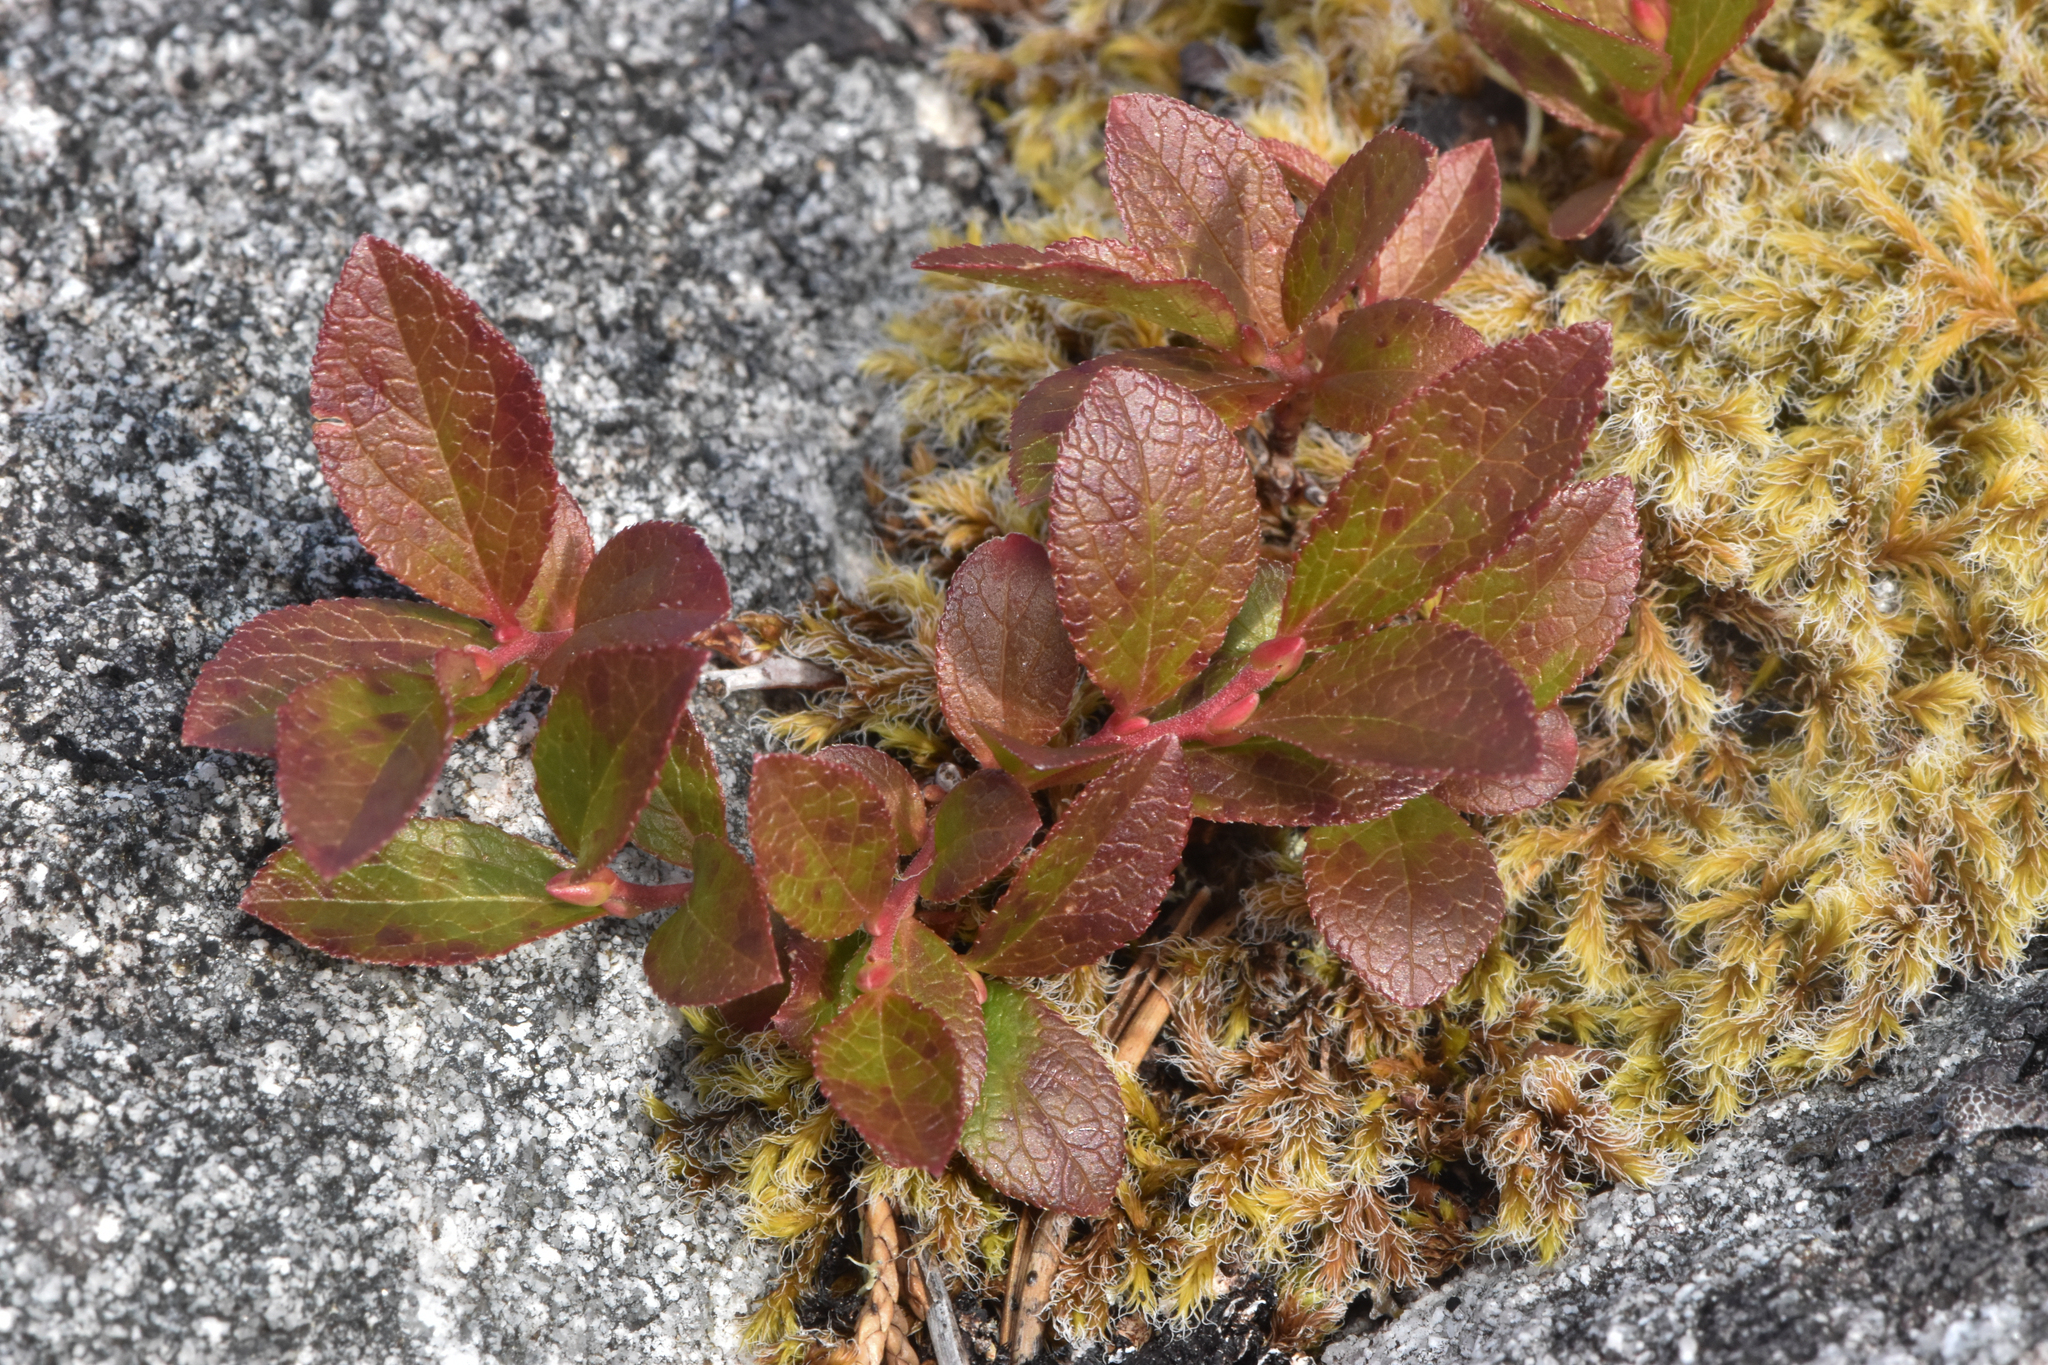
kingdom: Plantae
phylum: Tracheophyta
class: Magnoliopsida
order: Ericales
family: Ericaceae
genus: Vaccinium
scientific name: Vaccinium cespitosum
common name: Dwarf bilberry
